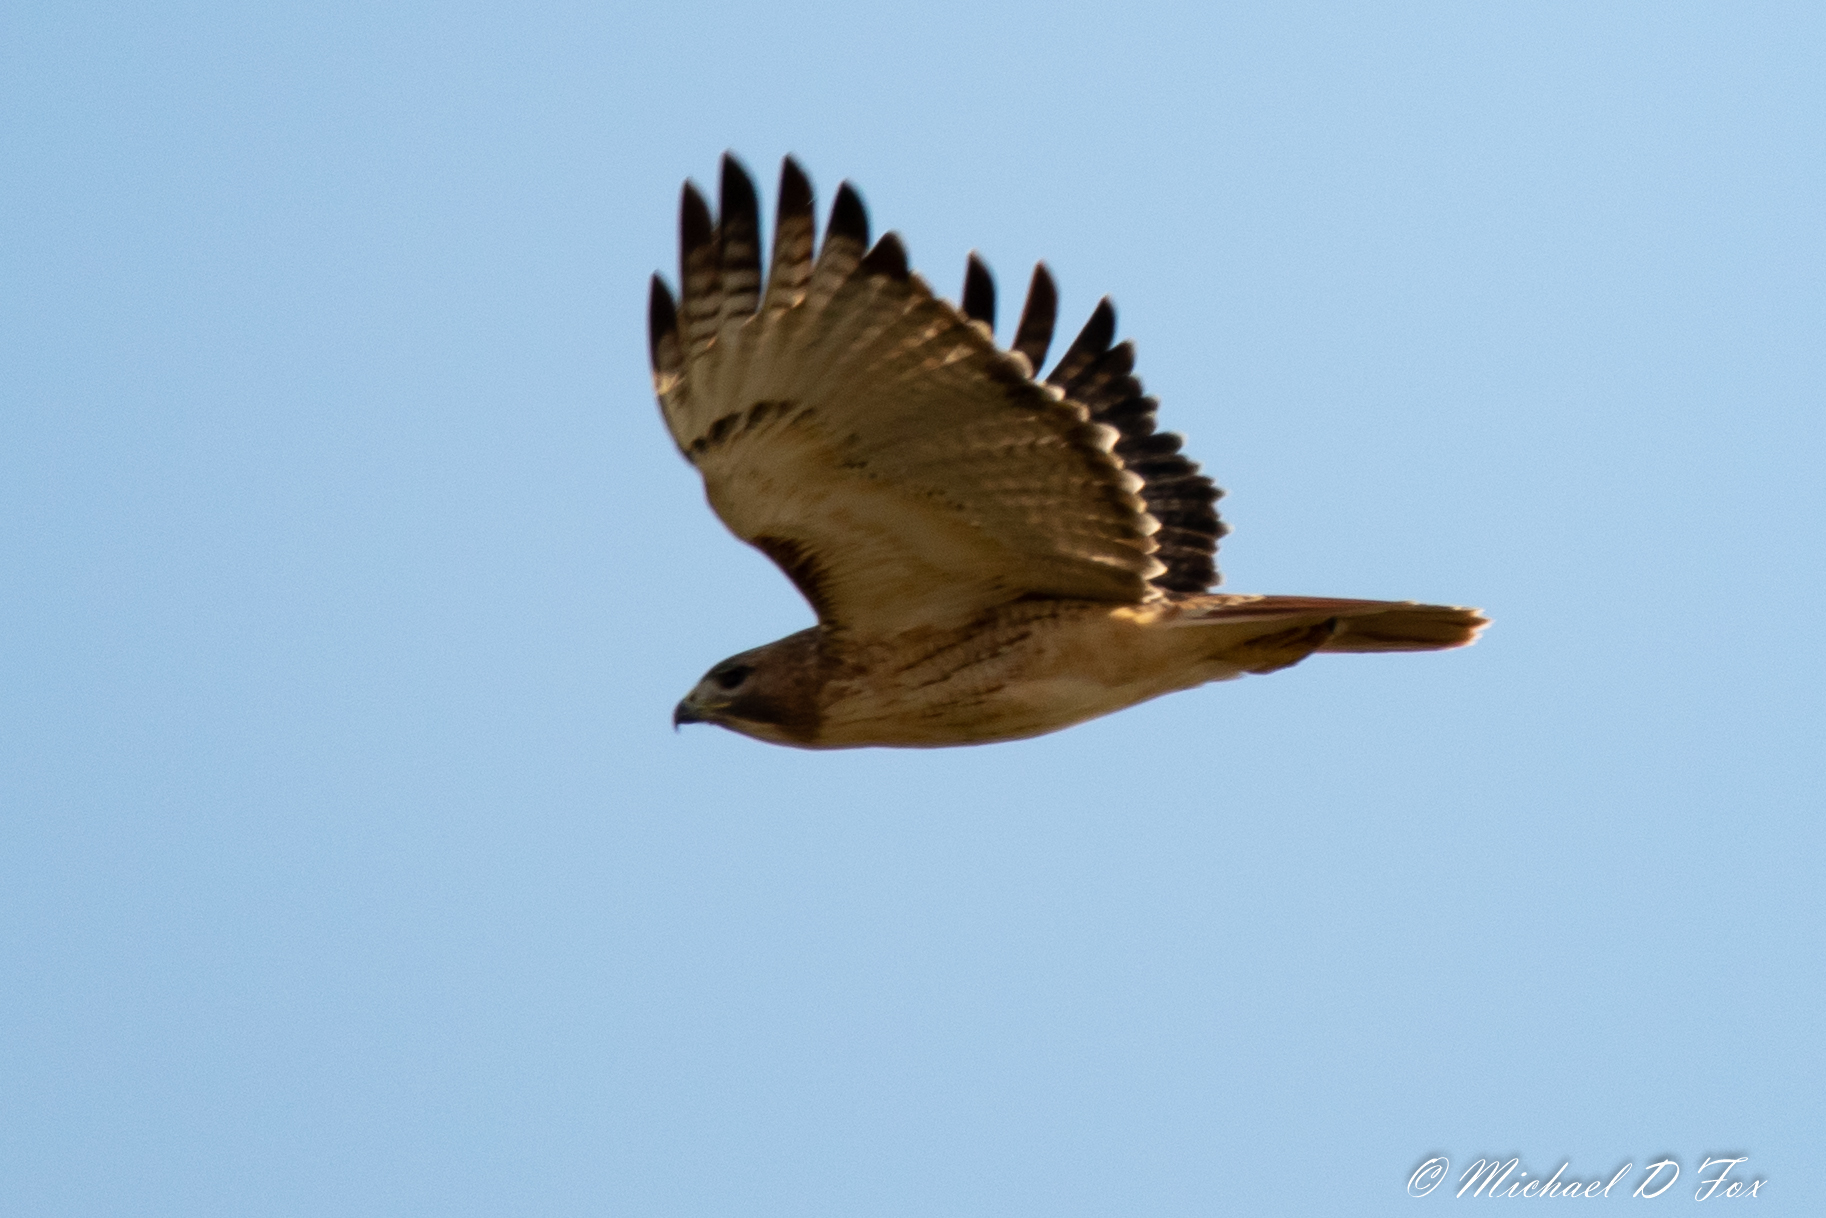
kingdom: Animalia
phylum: Chordata
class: Aves
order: Accipitriformes
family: Accipitridae
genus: Buteo
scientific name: Buteo jamaicensis
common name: Red-tailed hawk
